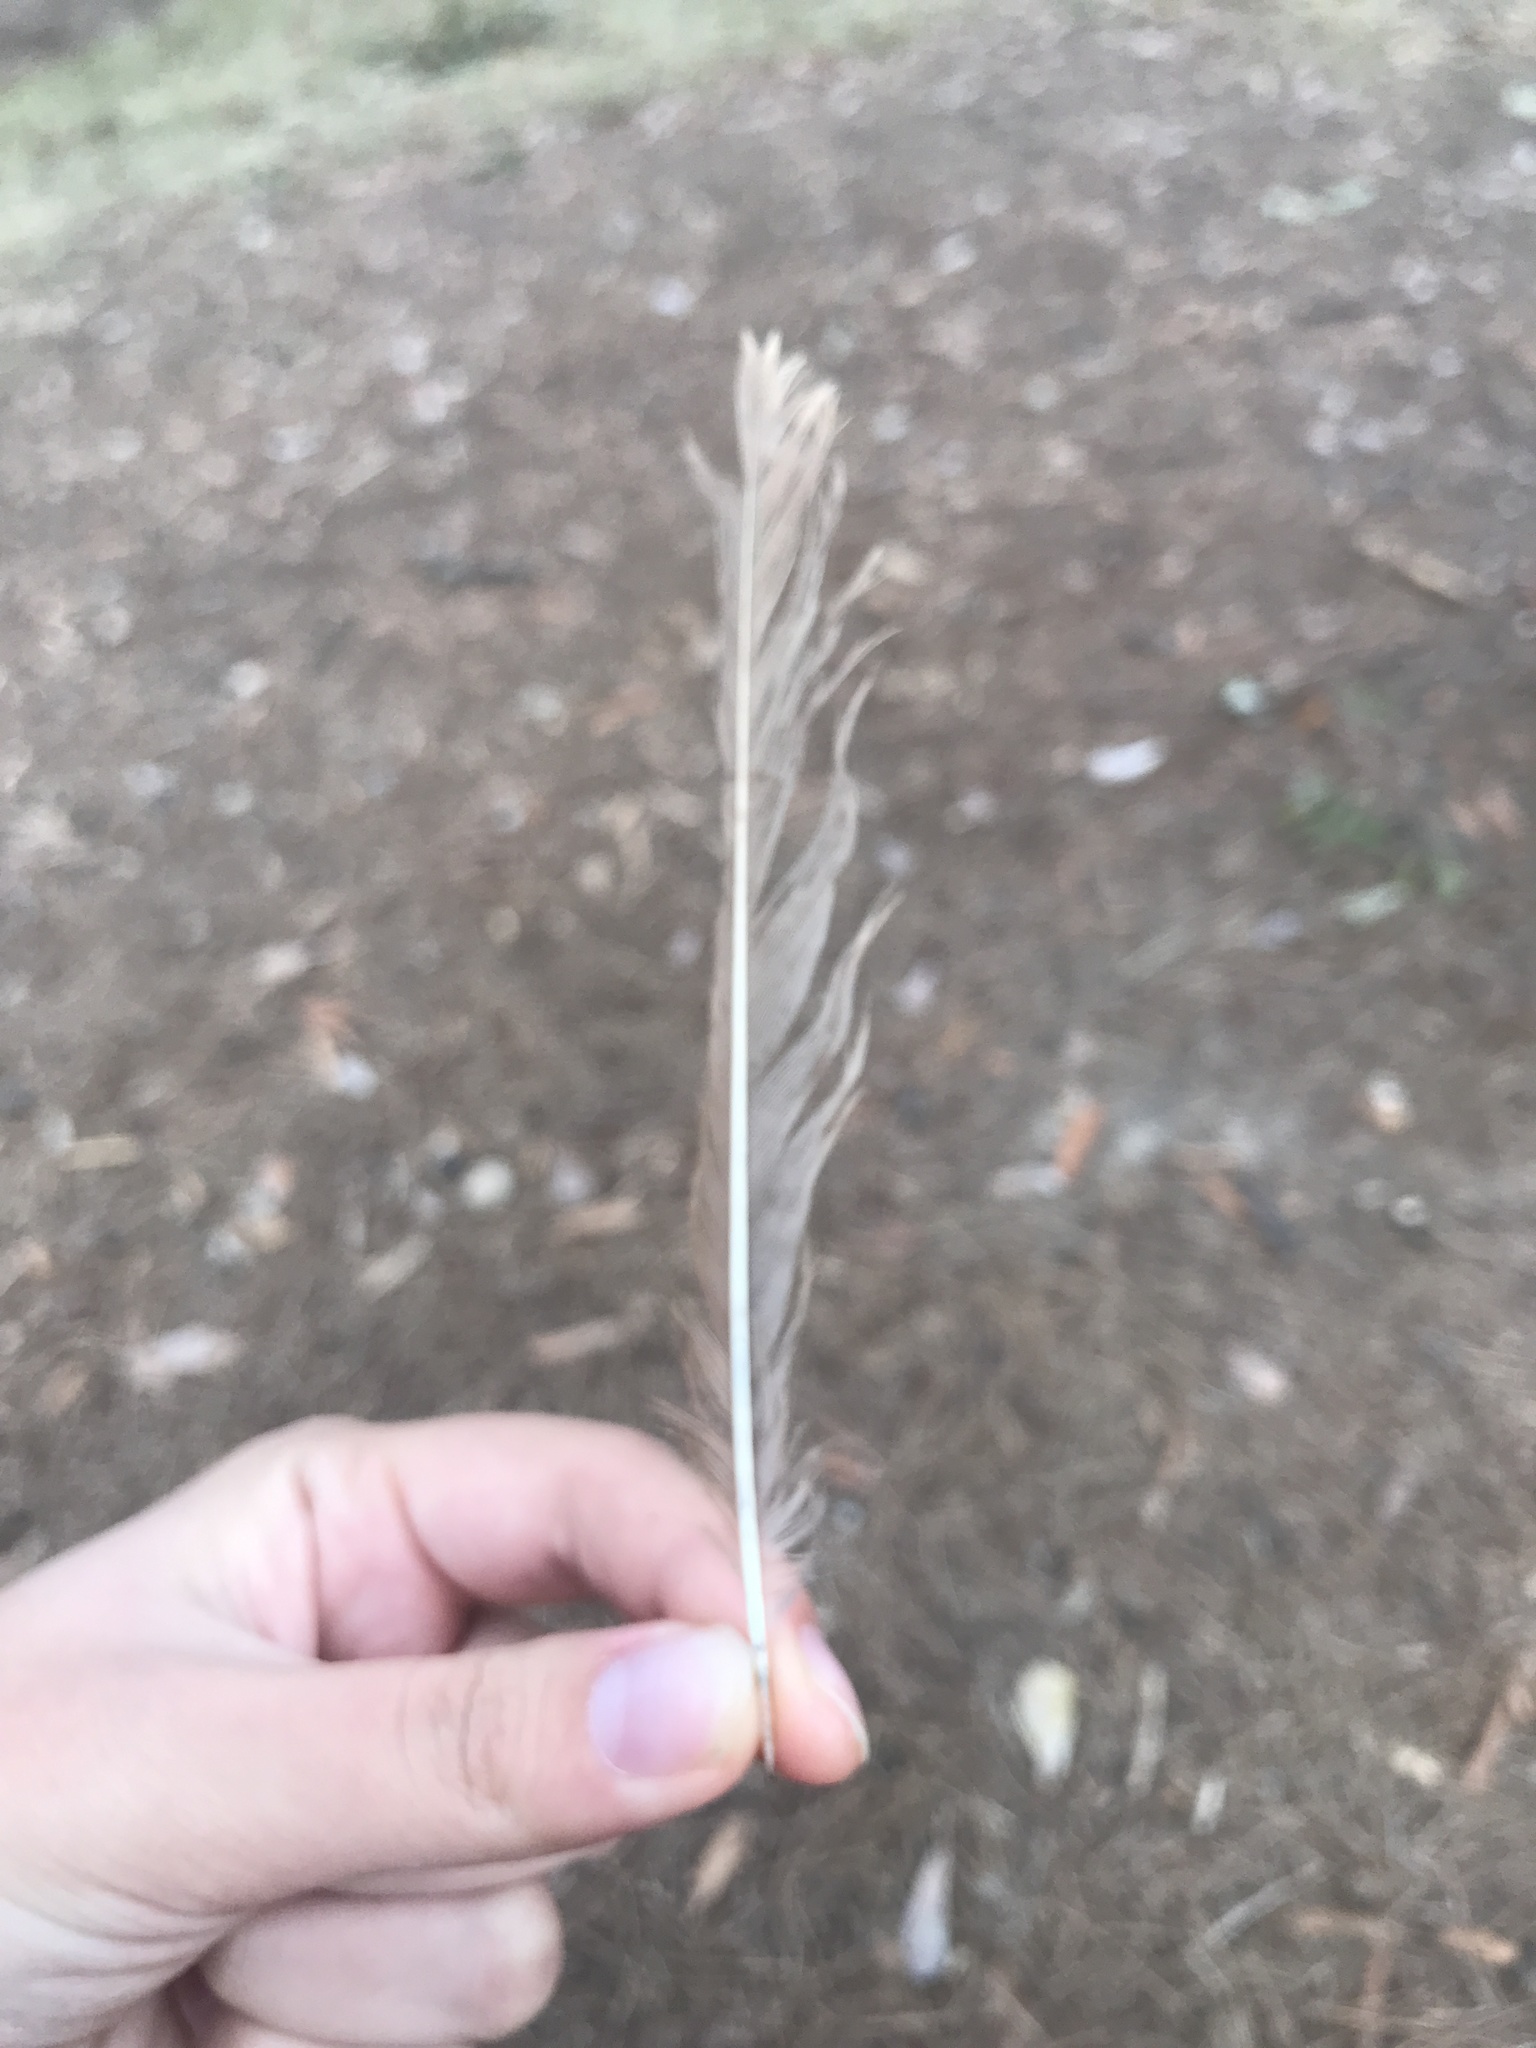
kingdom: Animalia
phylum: Chordata
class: Aves
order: Passeriformes
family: Mimidae
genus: Toxostoma
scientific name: Toxostoma rufum
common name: Brown thrasher
